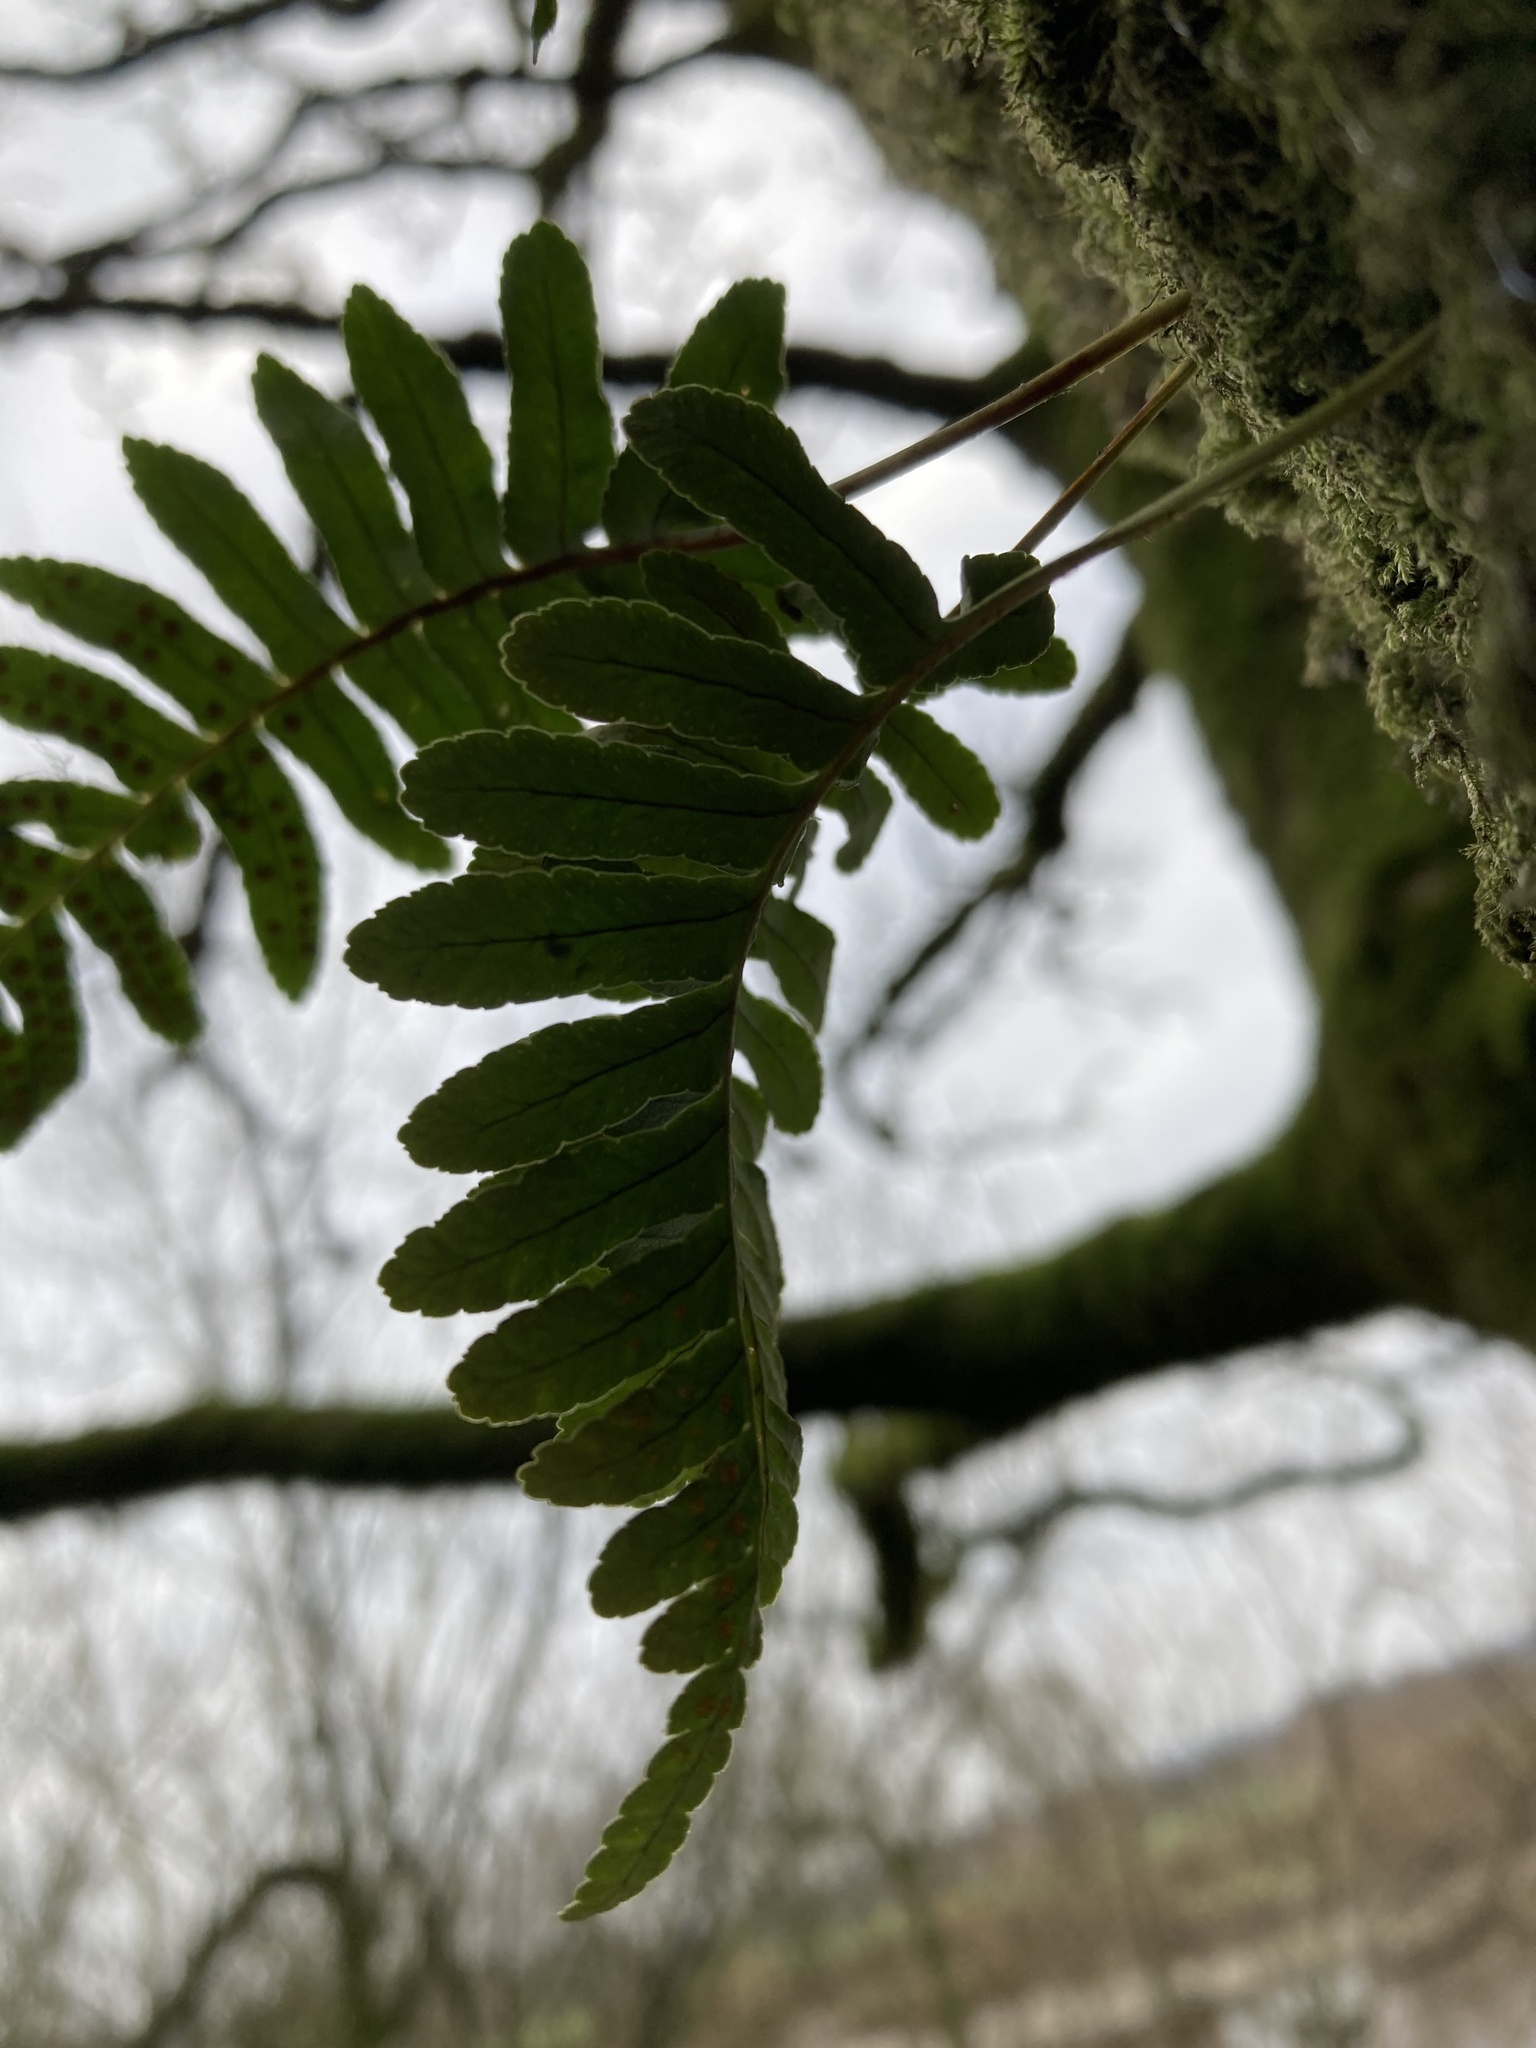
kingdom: Plantae
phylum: Tracheophyta
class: Polypodiopsida
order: Polypodiales
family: Polypodiaceae
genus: Polypodium
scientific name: Polypodium vulgare
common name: Common polypody
